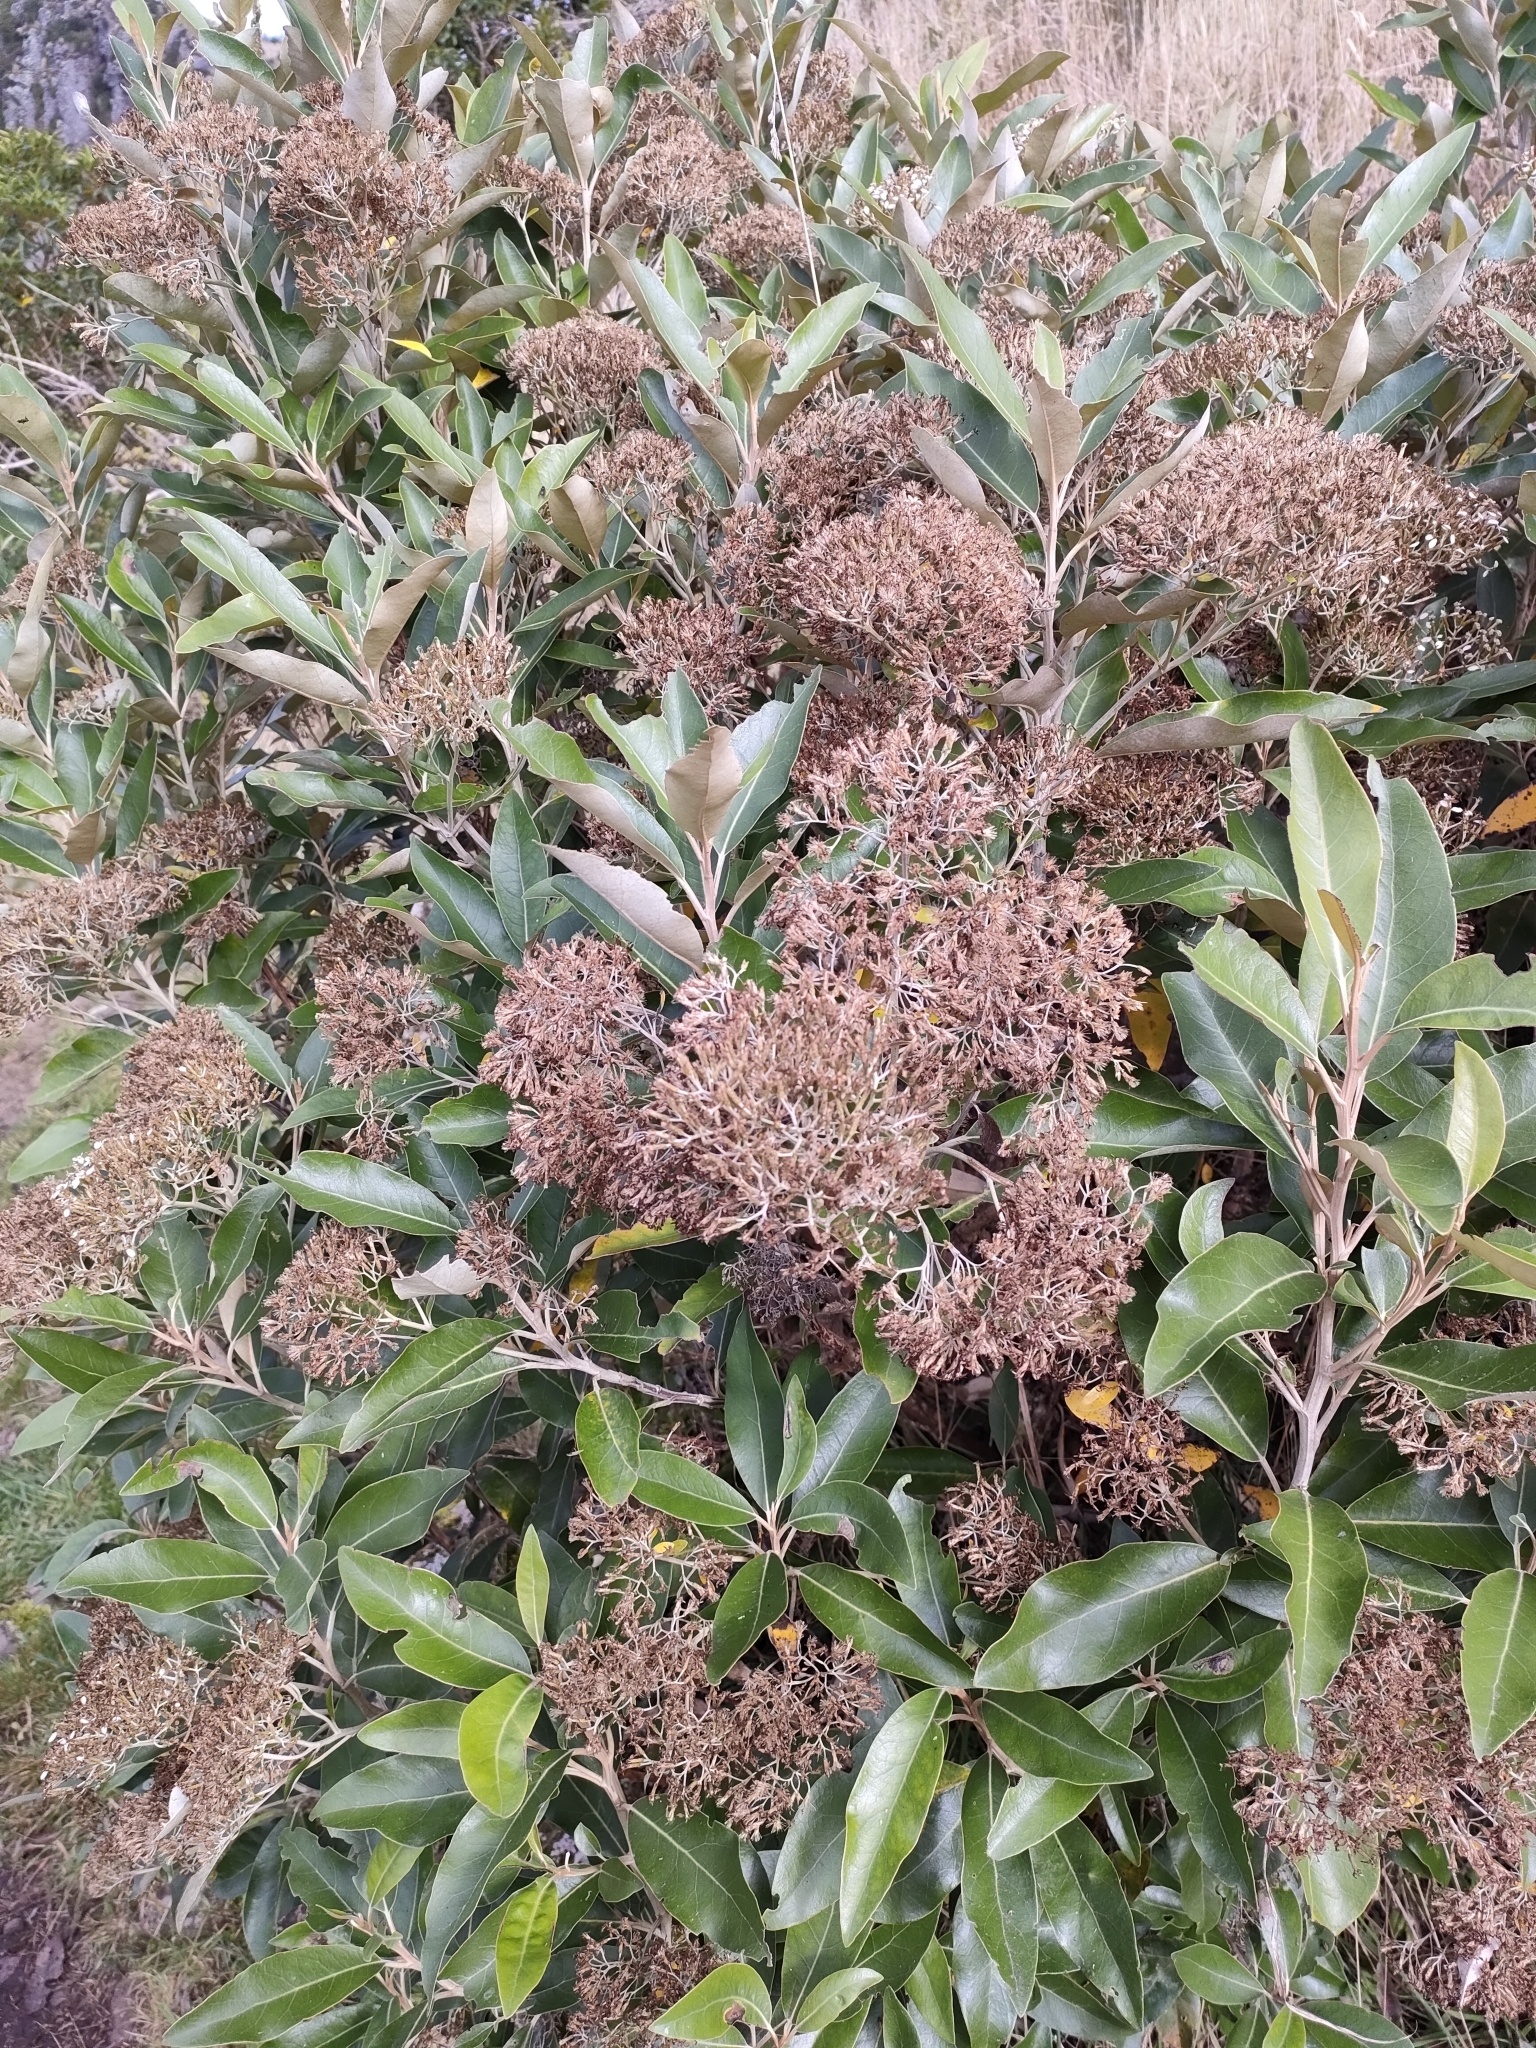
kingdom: Plantae
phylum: Tracheophyta
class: Magnoliopsida
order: Asterales
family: Asteraceae
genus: Olearia
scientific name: Olearia avicenniifolia
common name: Mangrove-leaf daisybush
